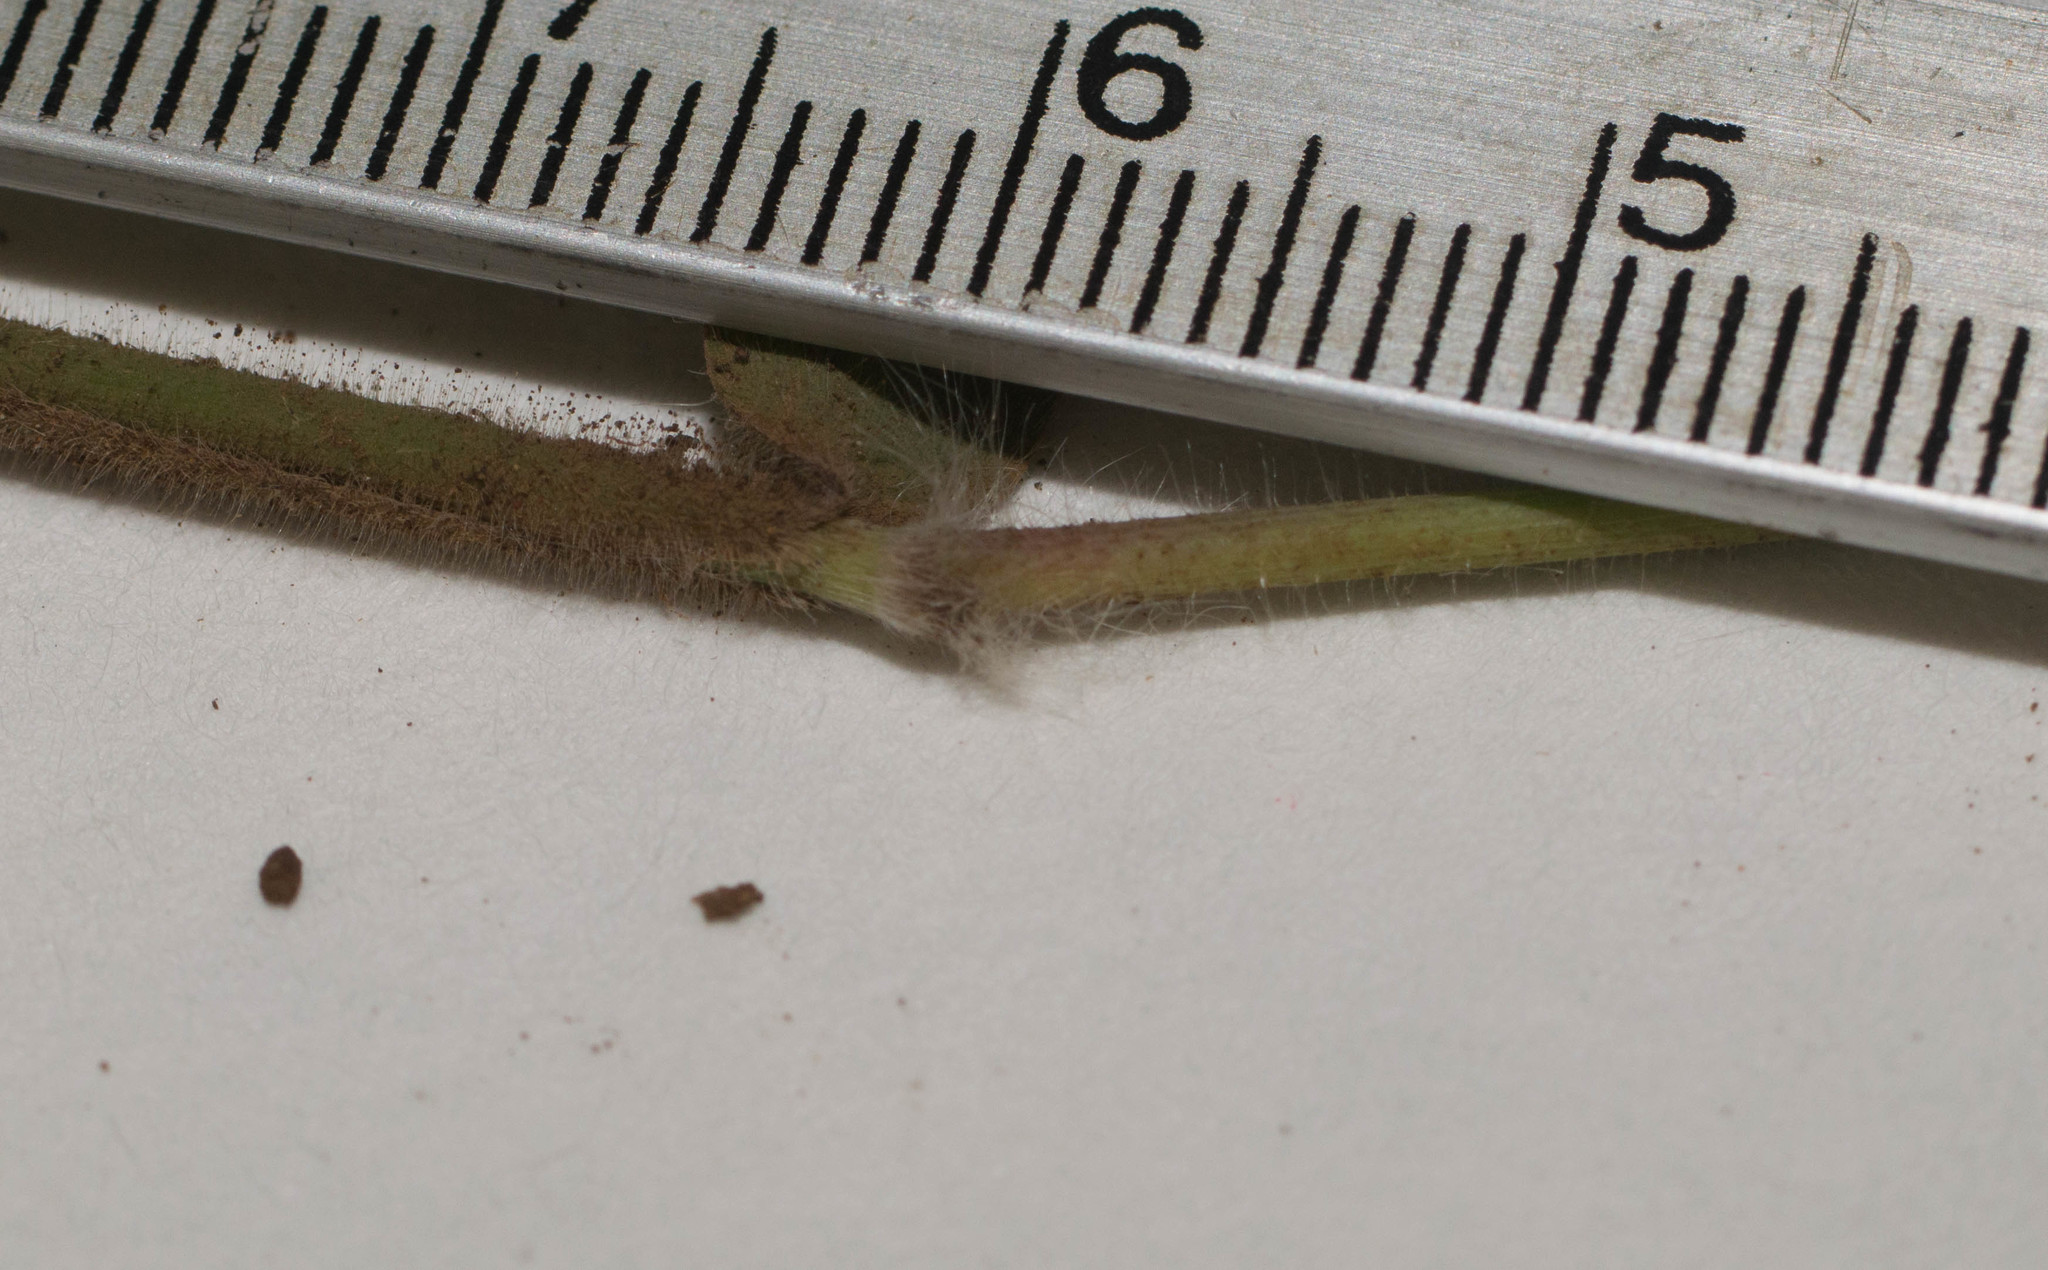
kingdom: Plantae
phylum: Tracheophyta
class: Liliopsida
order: Poales
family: Poaceae
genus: Melinis
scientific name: Melinis minutiflora
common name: Molassesgrass
